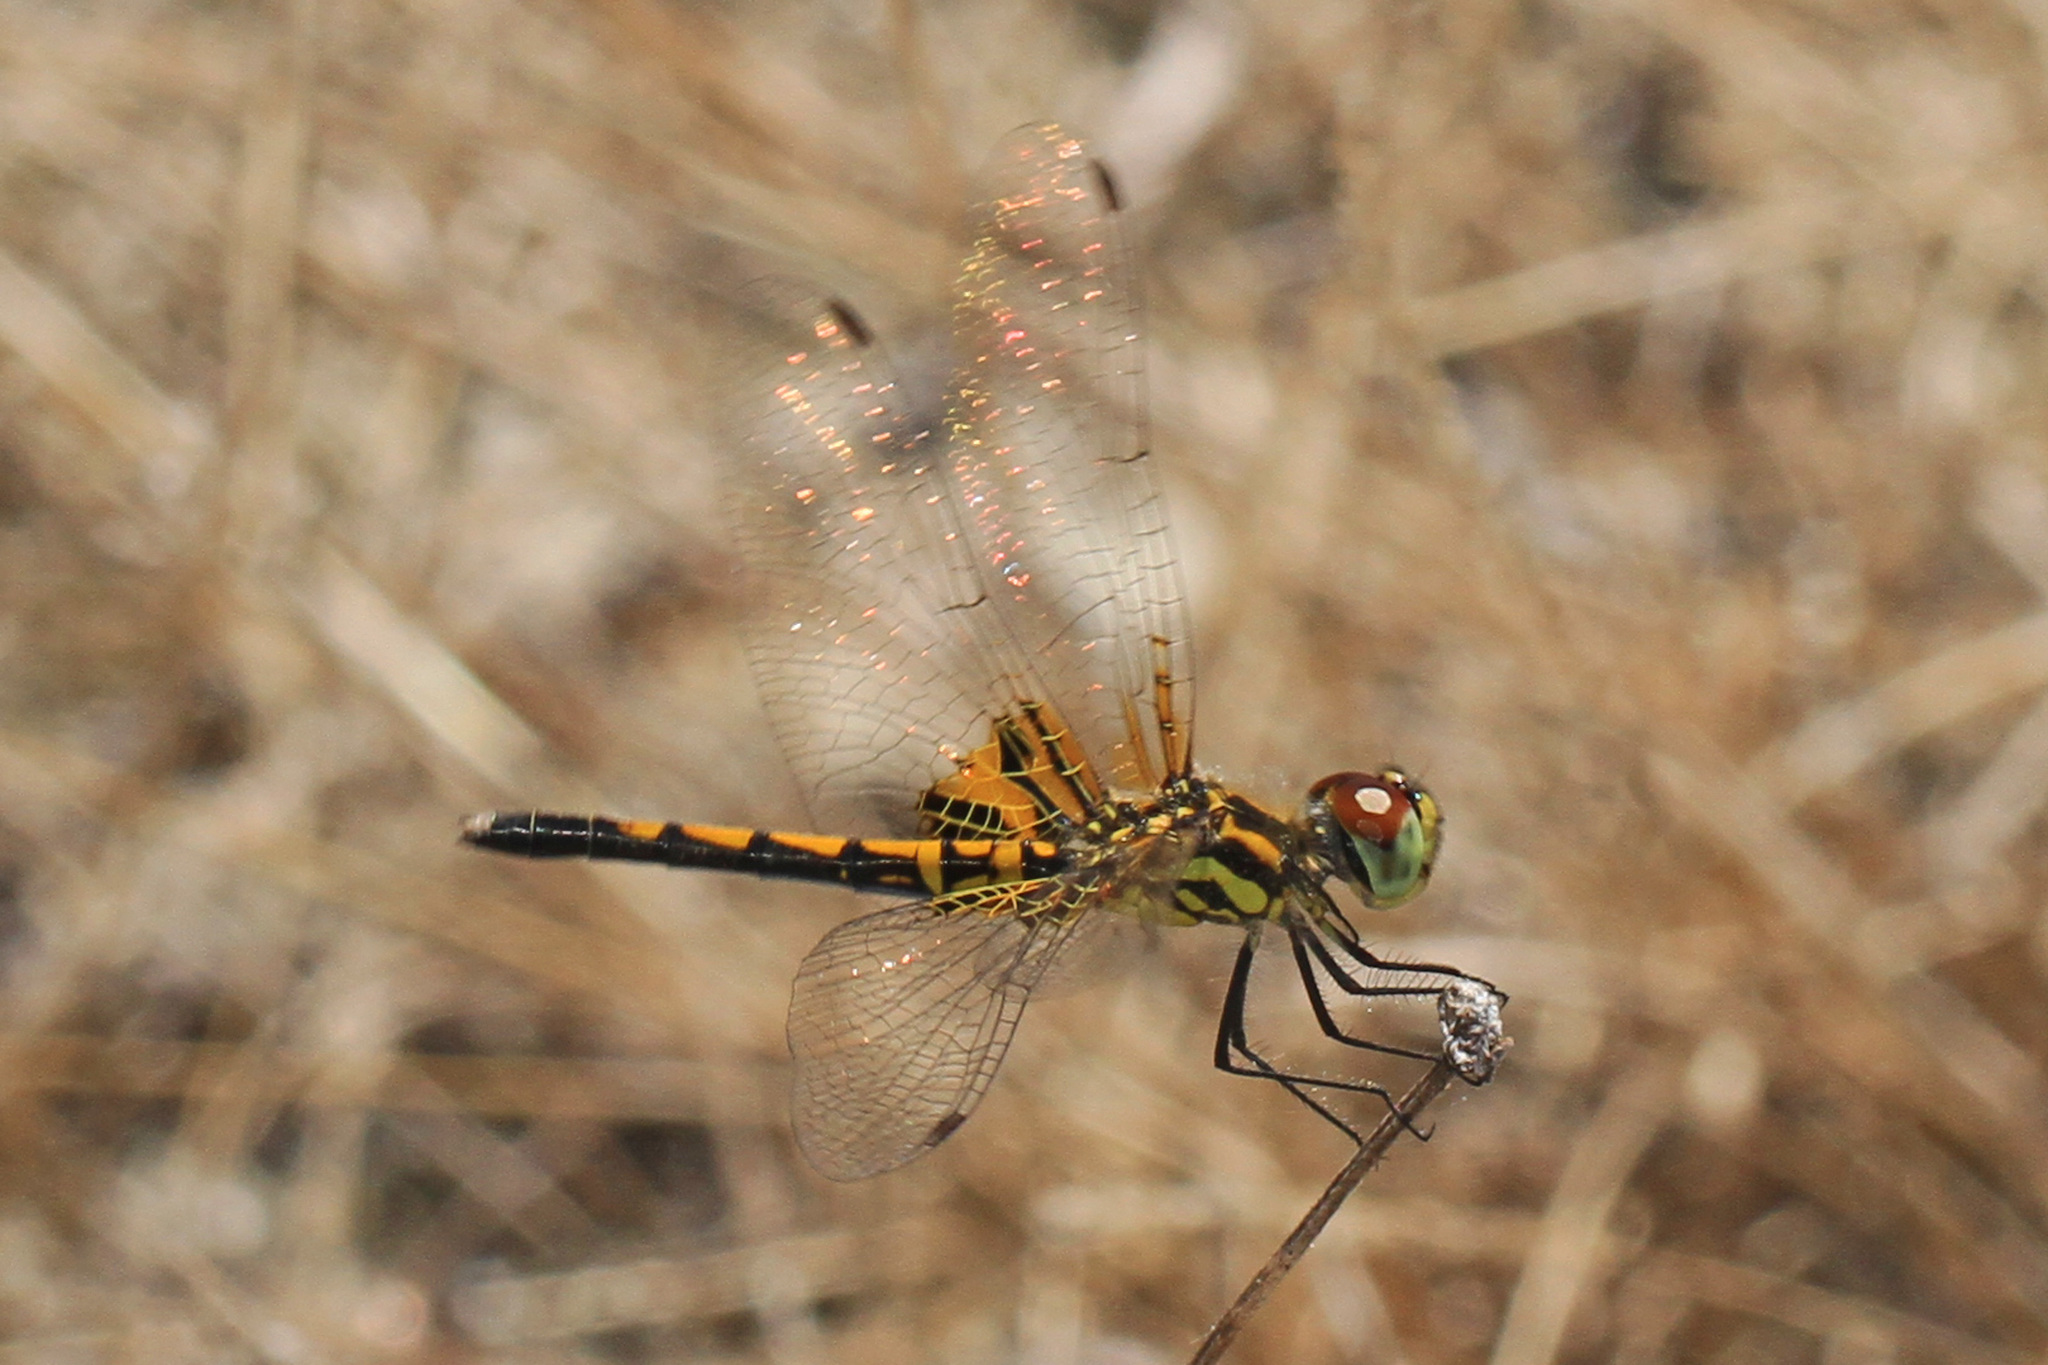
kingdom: Animalia
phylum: Arthropoda
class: Insecta
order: Odonata
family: Libellulidae
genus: Celithemis
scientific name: Celithemis ornata
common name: Ornate pennant
